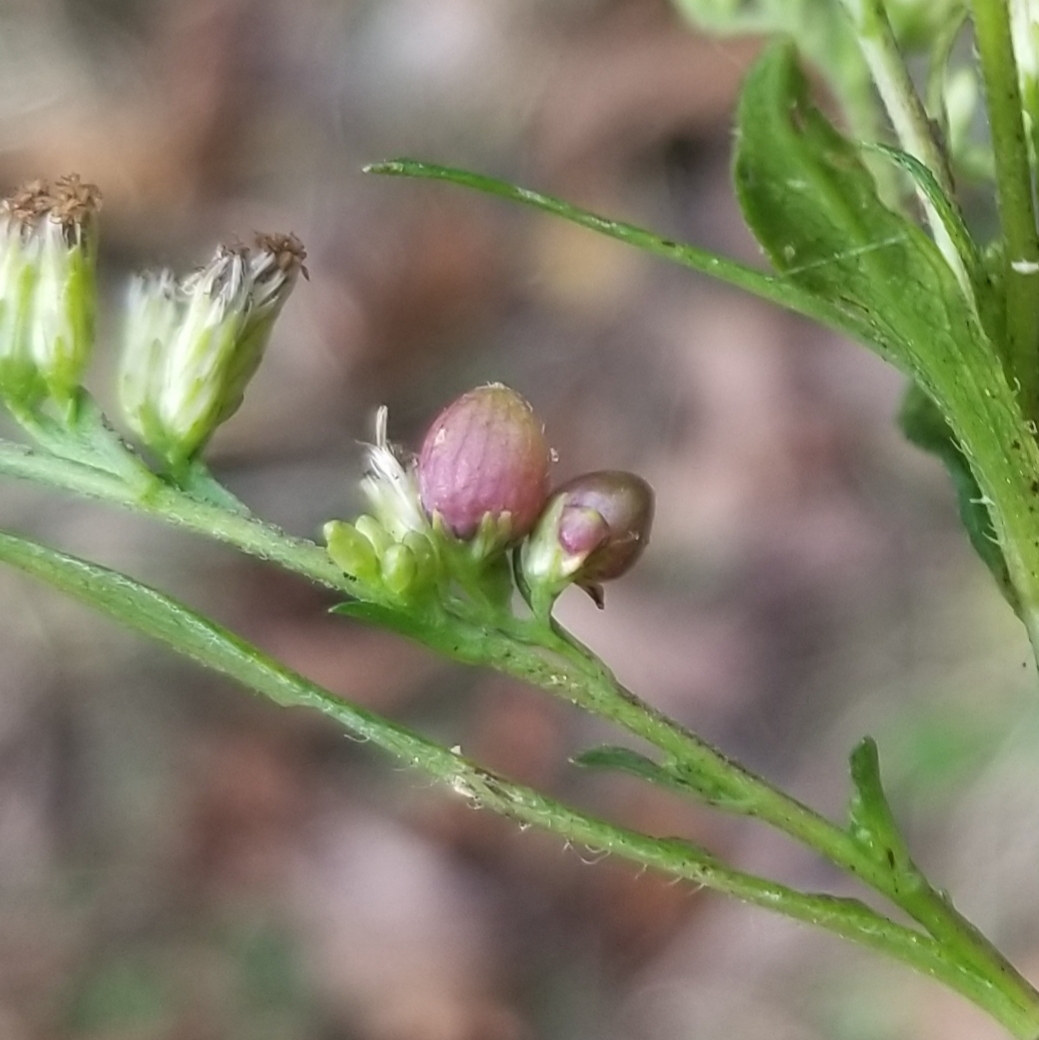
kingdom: Animalia
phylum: Arthropoda
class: Insecta
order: Diptera
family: Cecidomyiidae
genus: Schizomyia
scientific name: Schizomyia racemicola
